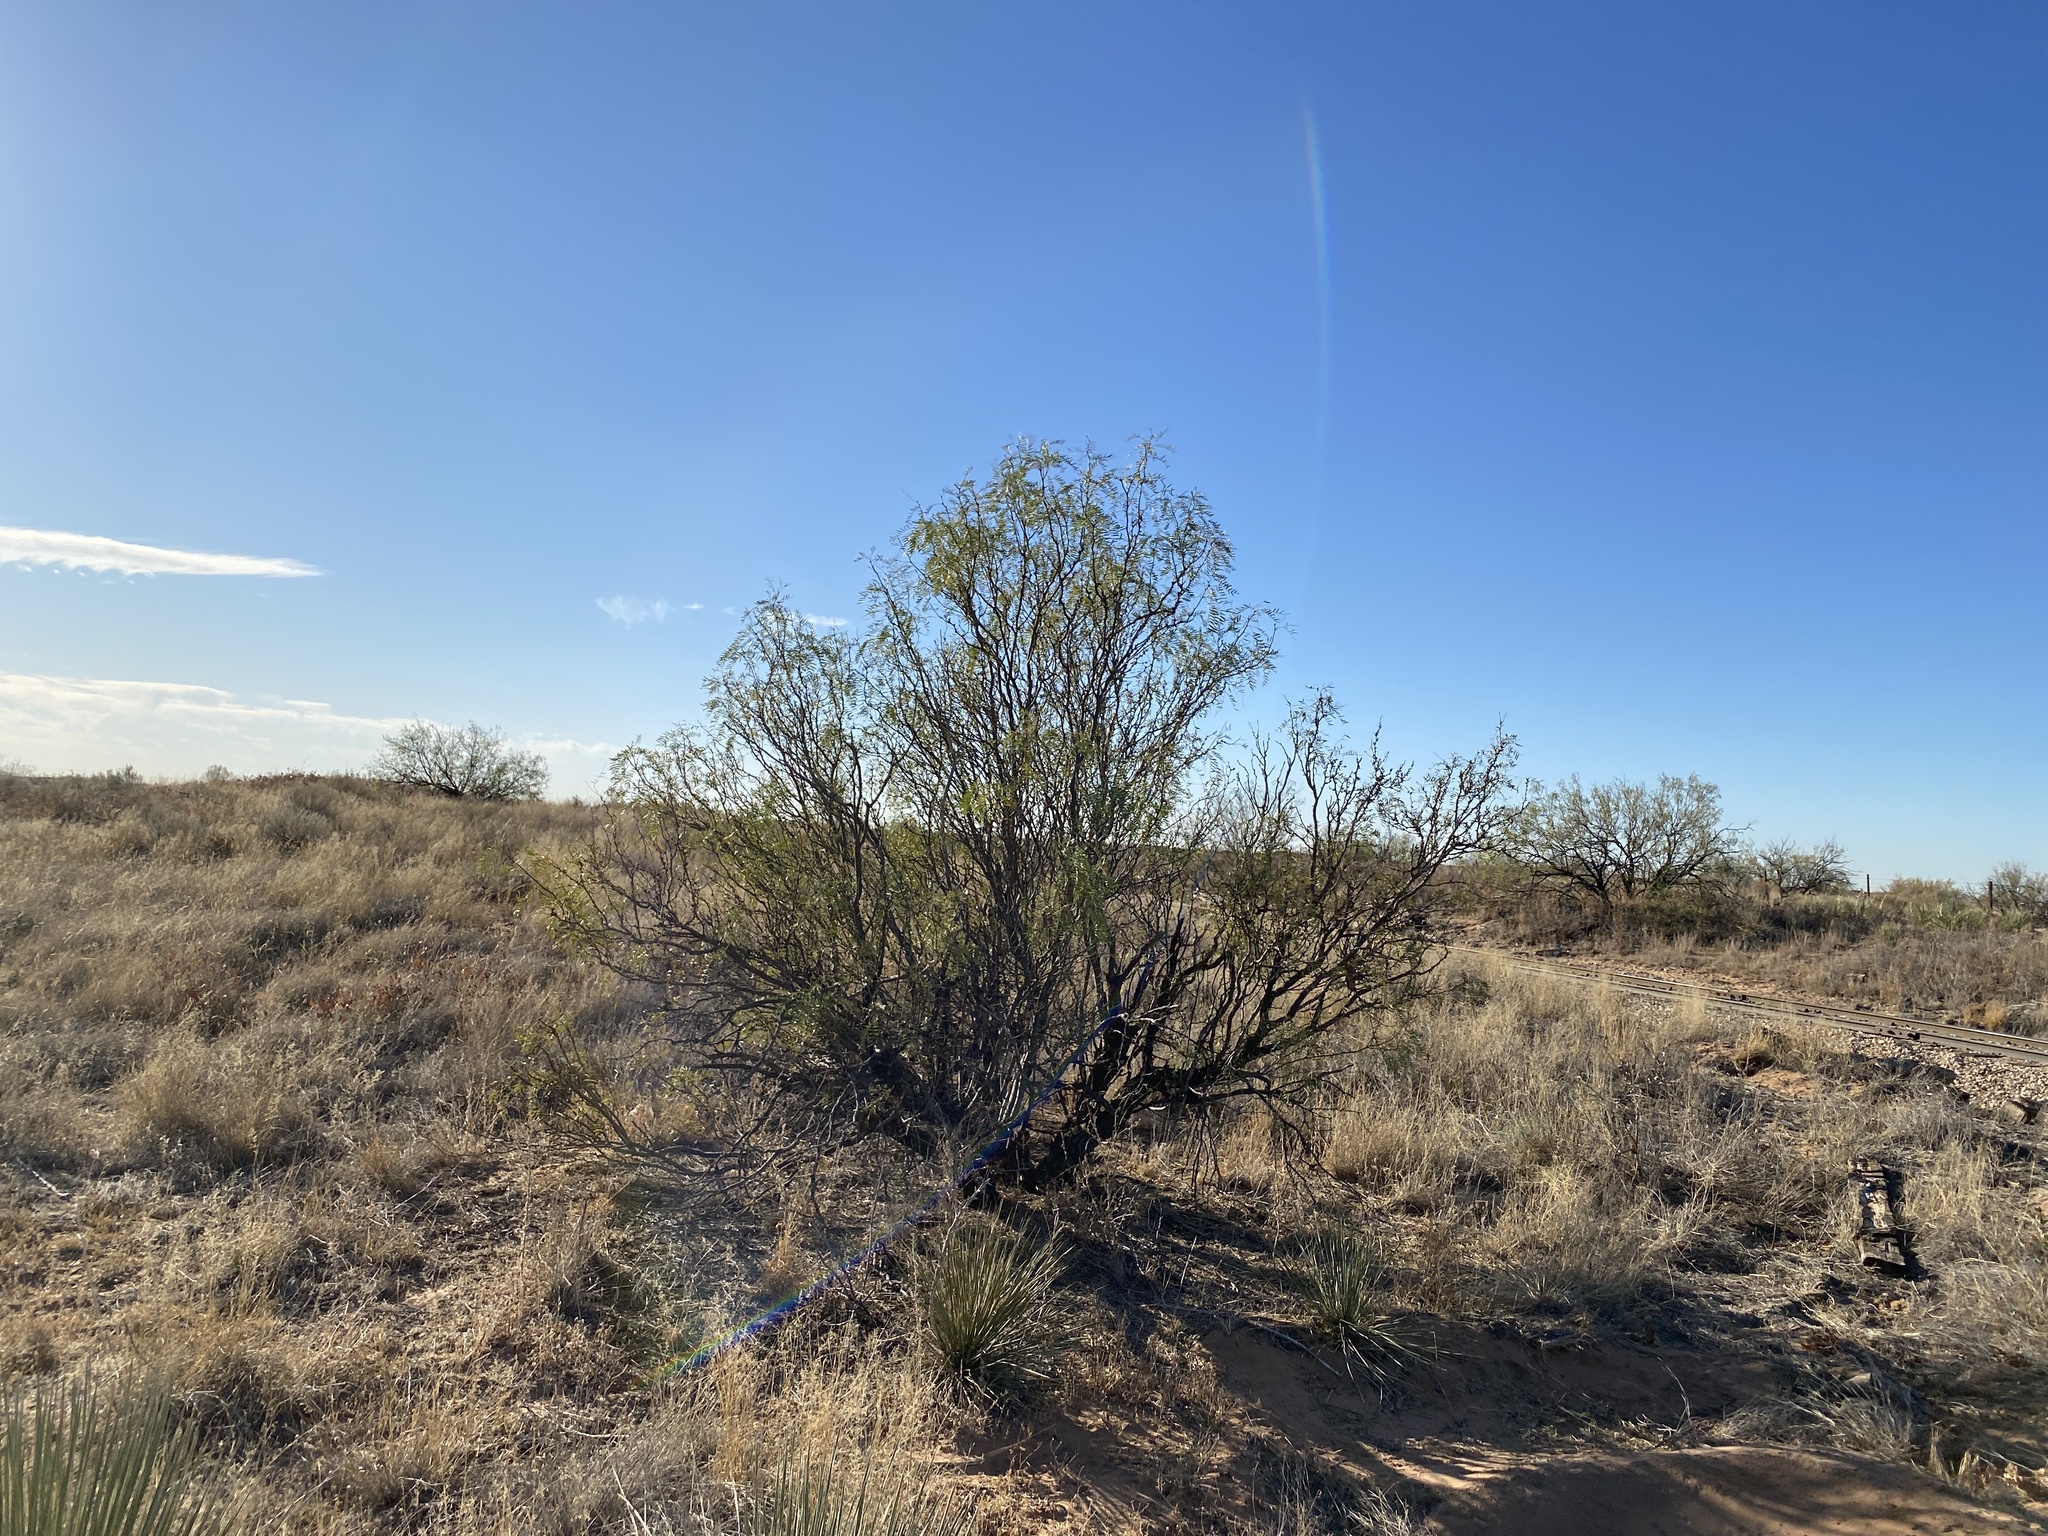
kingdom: Plantae
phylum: Tracheophyta
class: Magnoliopsida
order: Fabales
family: Fabaceae
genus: Prosopis
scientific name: Prosopis glandulosa
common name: Honey mesquite
